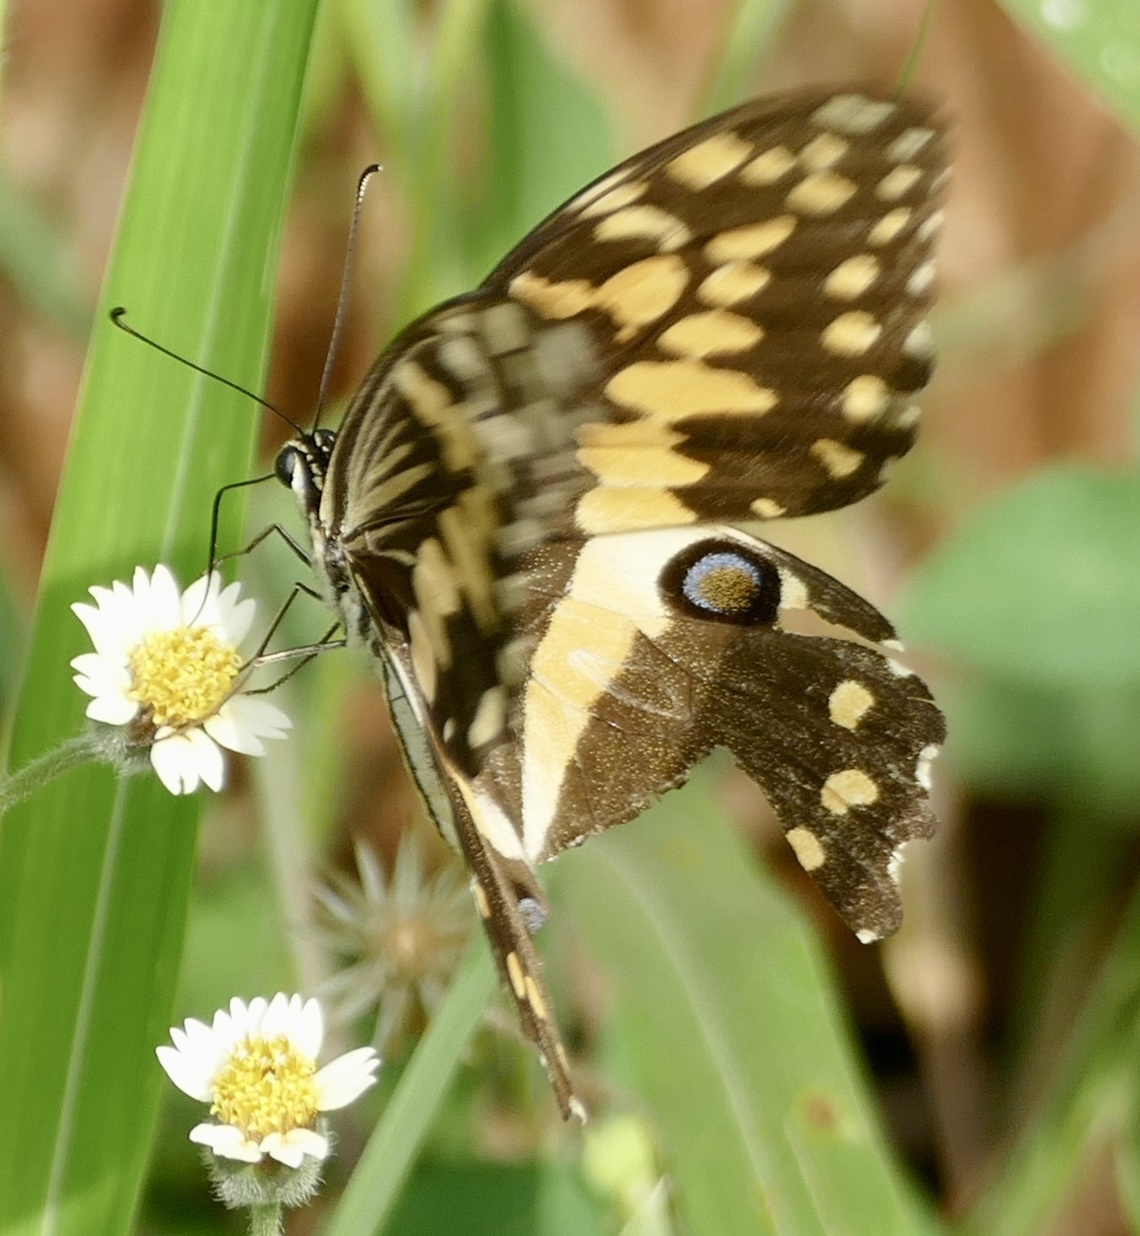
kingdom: Animalia
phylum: Arthropoda
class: Insecta
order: Lepidoptera
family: Papilionidae
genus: Papilio
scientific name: Papilio demodocus
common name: Christmas butterfly
